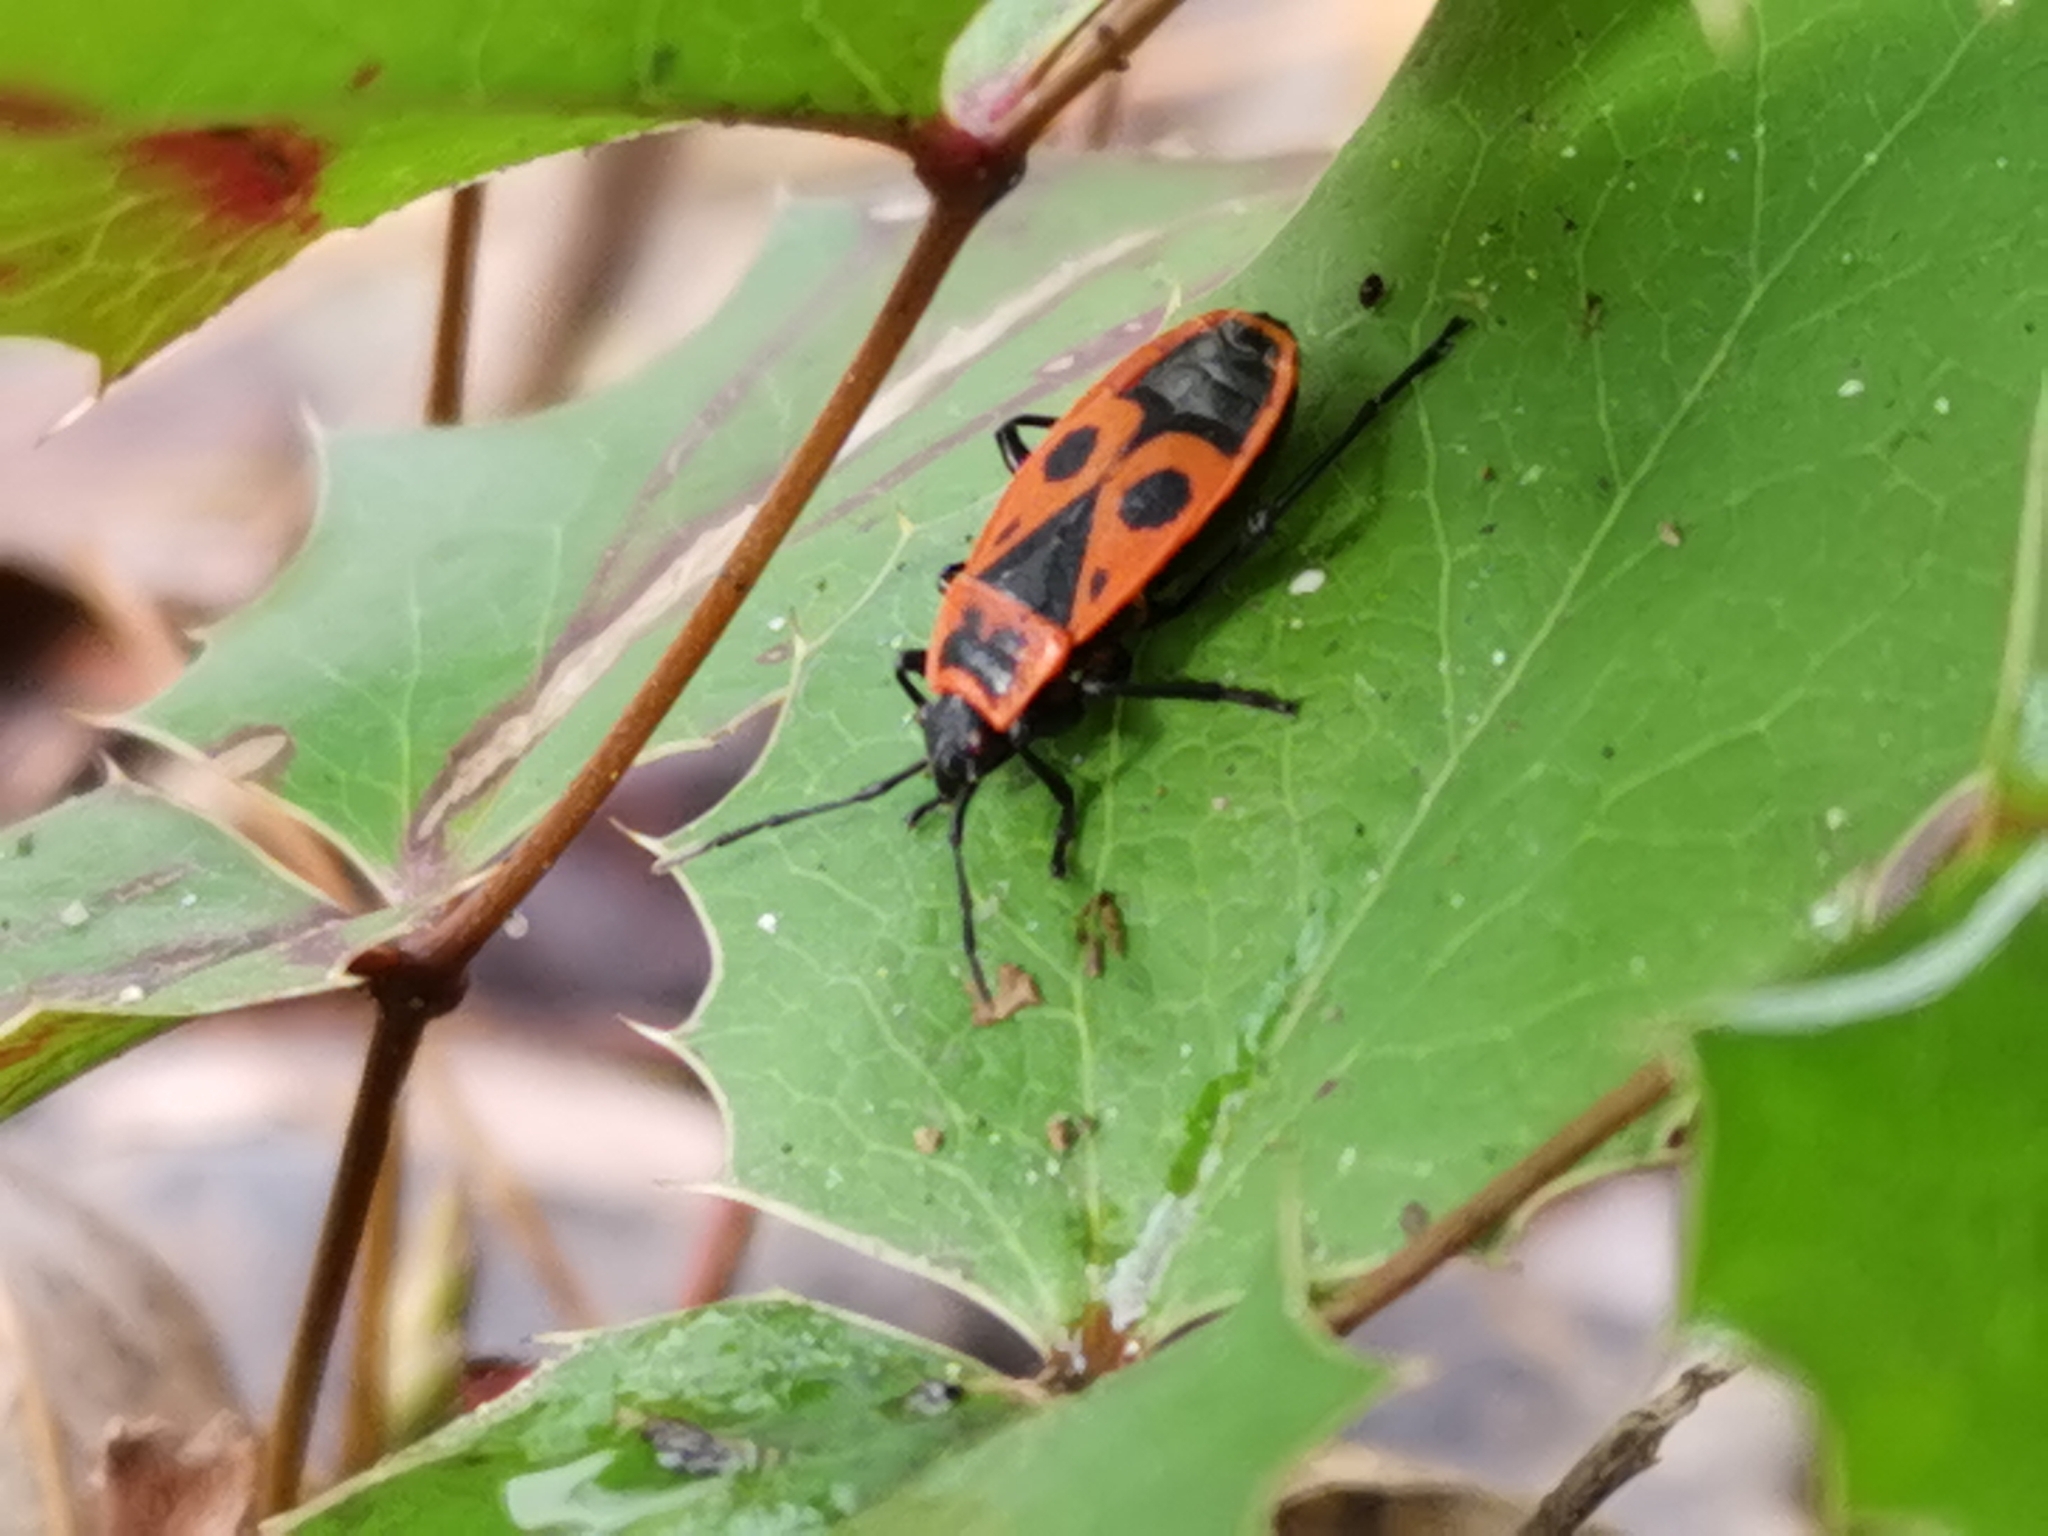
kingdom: Animalia
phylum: Arthropoda
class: Insecta
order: Hemiptera
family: Pyrrhocoridae
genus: Pyrrhocoris
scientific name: Pyrrhocoris apterus
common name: Firebug
